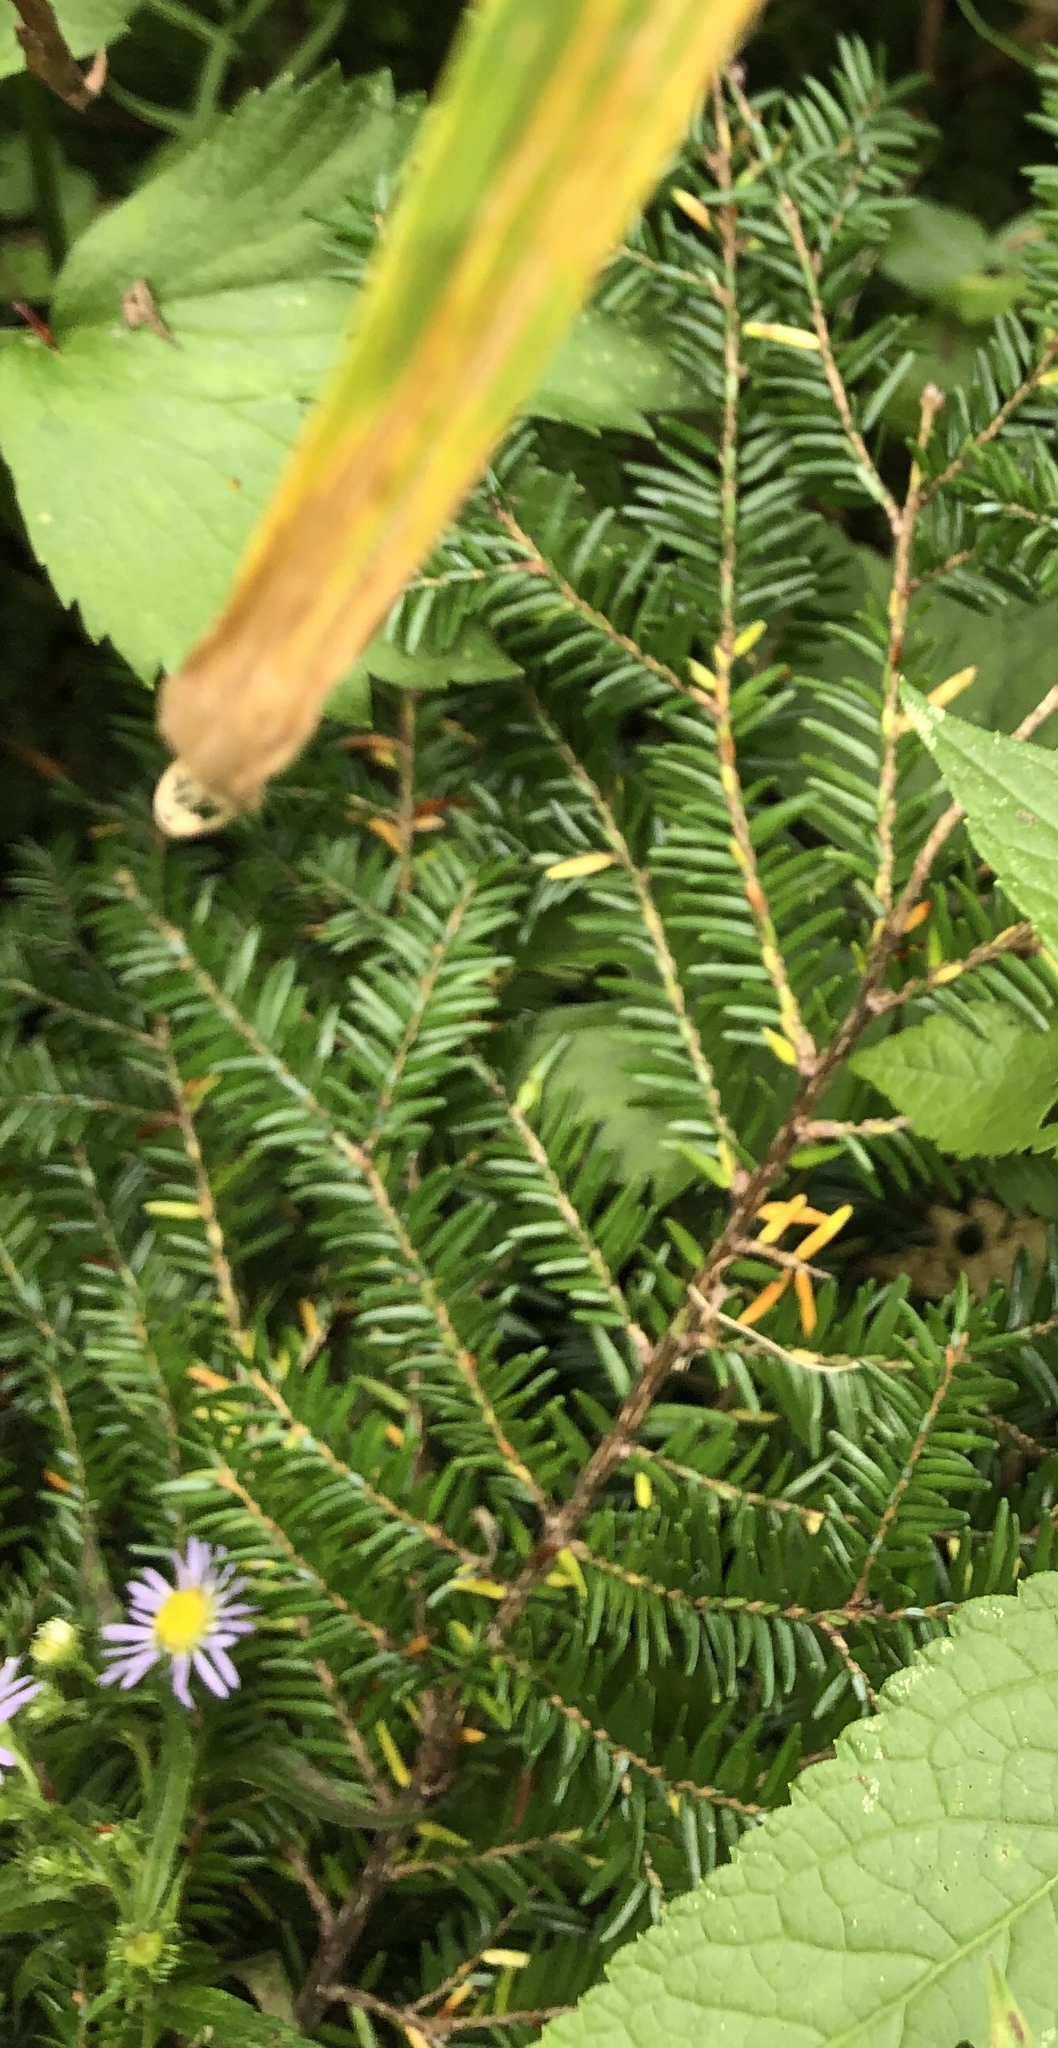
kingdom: Plantae
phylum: Tracheophyta
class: Pinopsida
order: Pinales
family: Pinaceae
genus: Tsuga
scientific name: Tsuga canadensis
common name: Eastern hemlock
